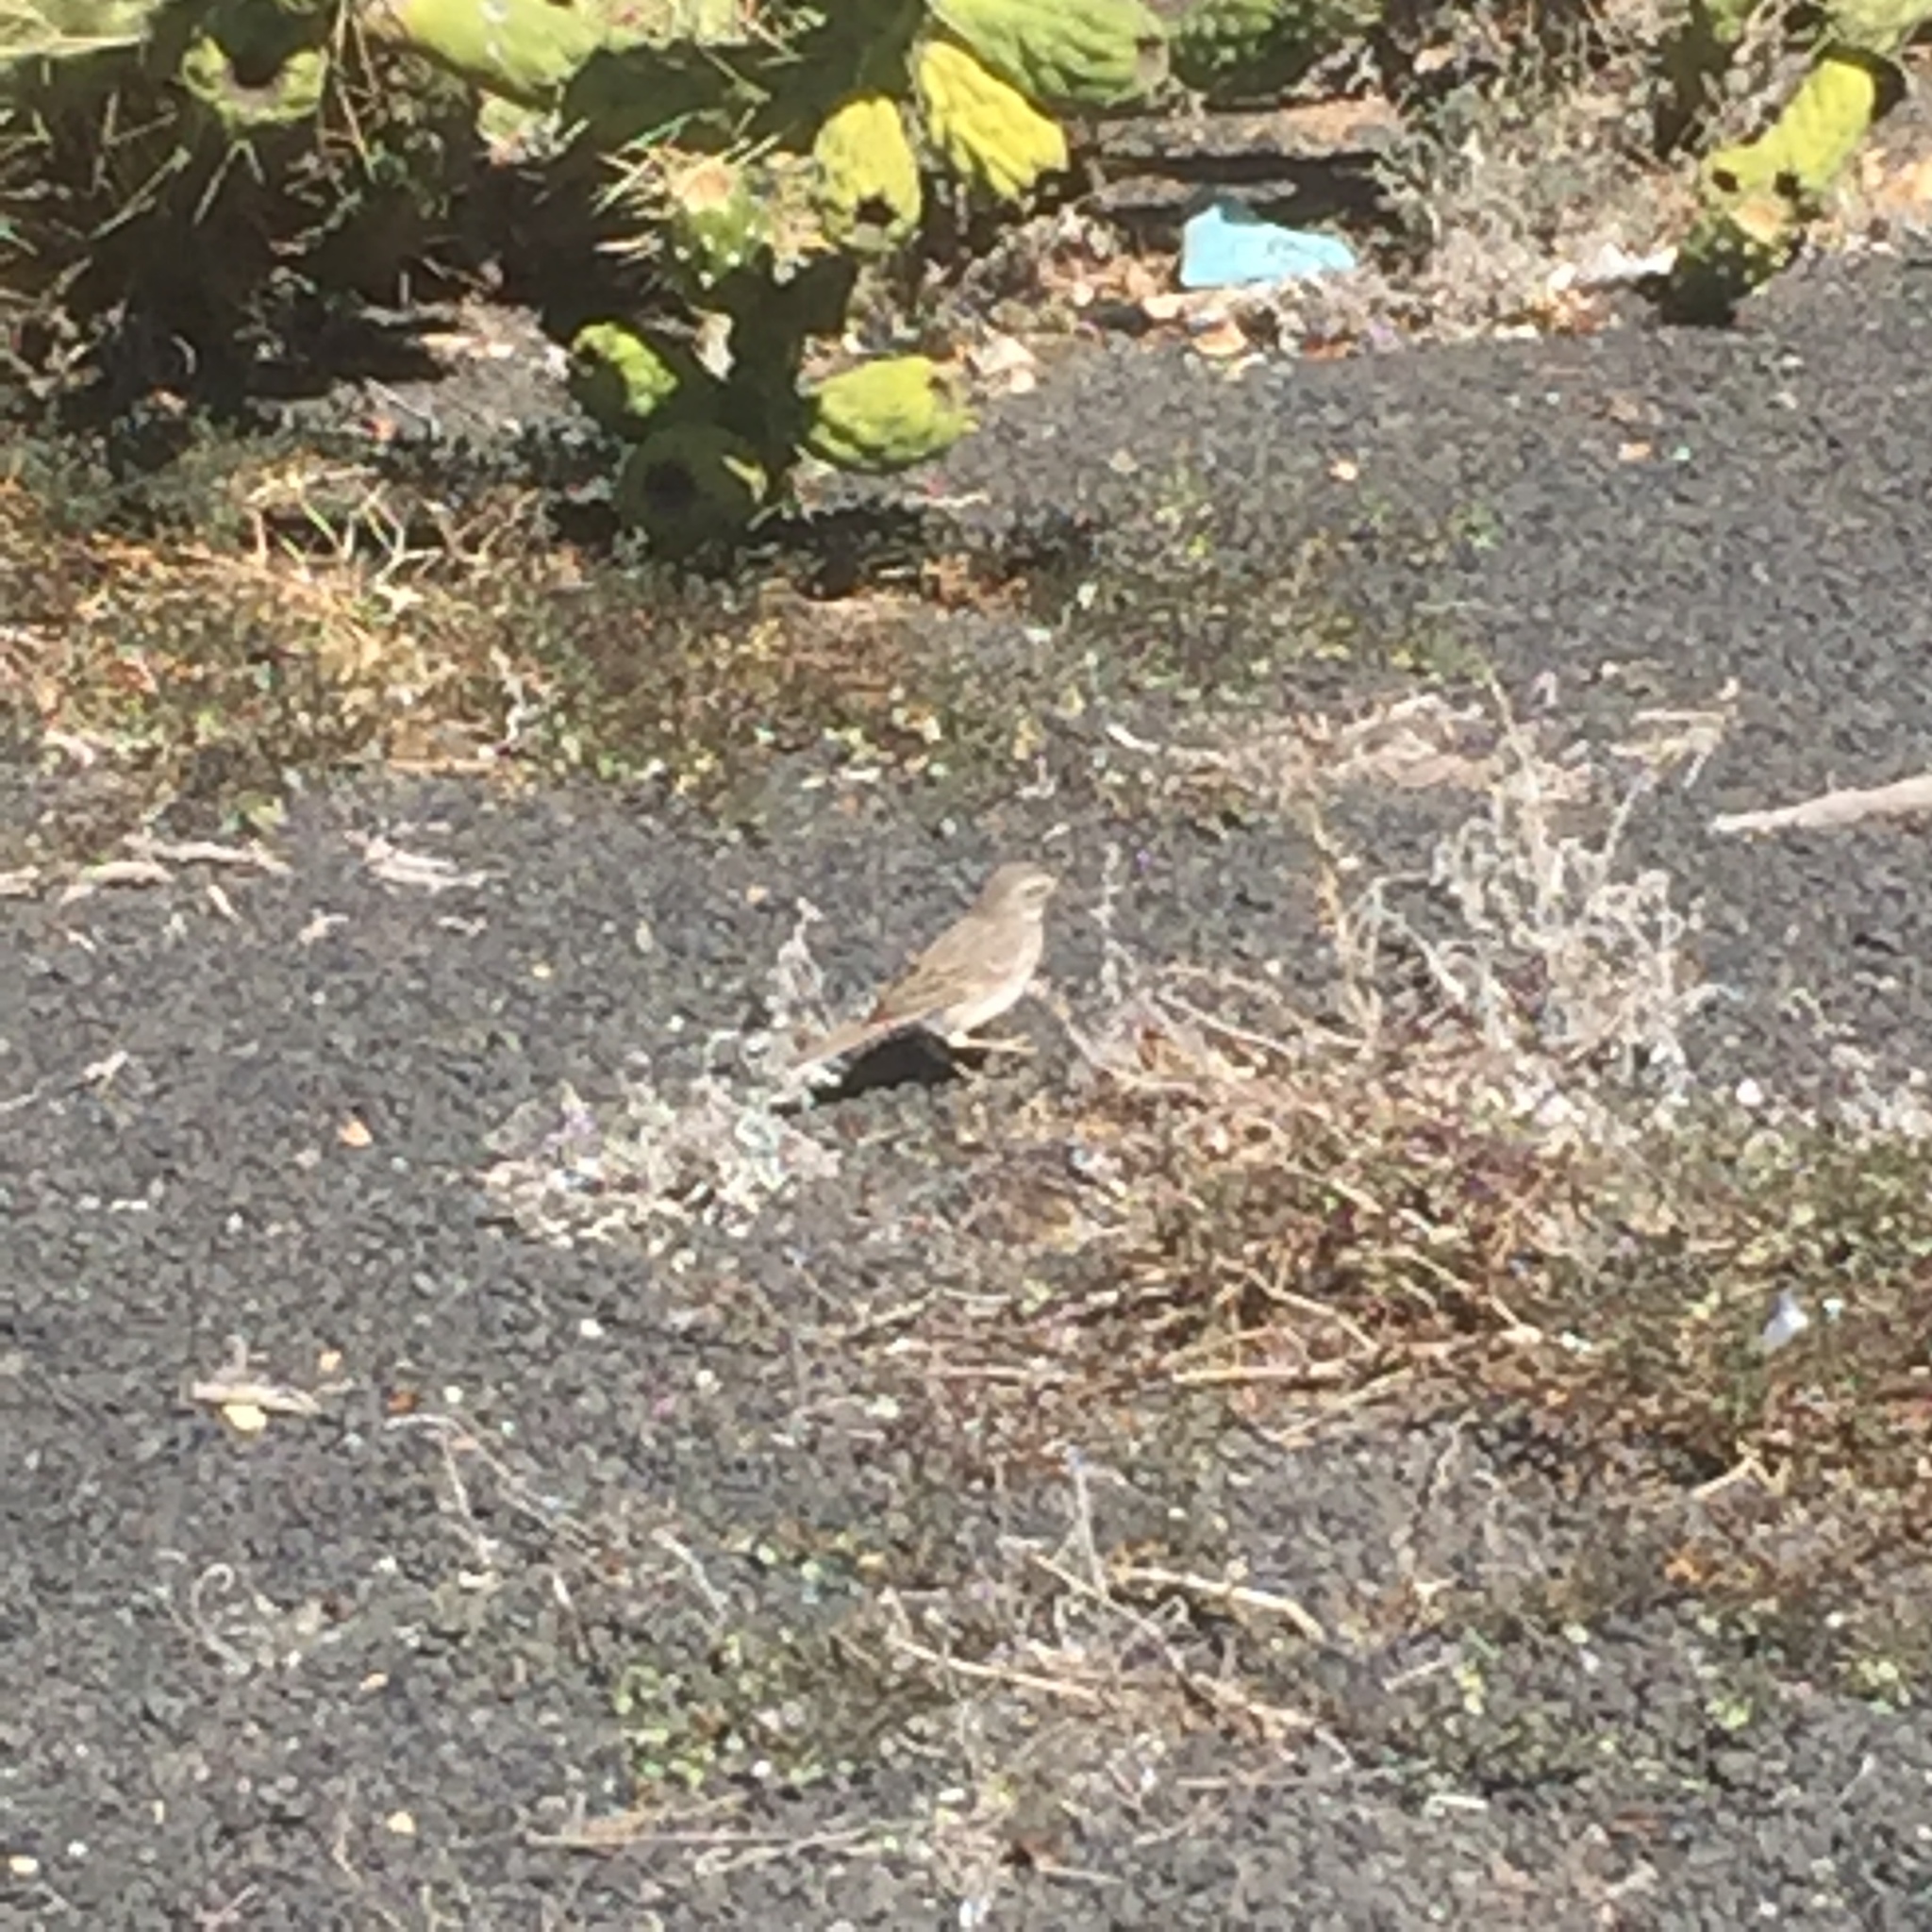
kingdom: Animalia
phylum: Chordata
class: Aves
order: Passeriformes
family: Motacillidae
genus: Anthus
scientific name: Anthus berthelotii
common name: Berthelot's pipit
